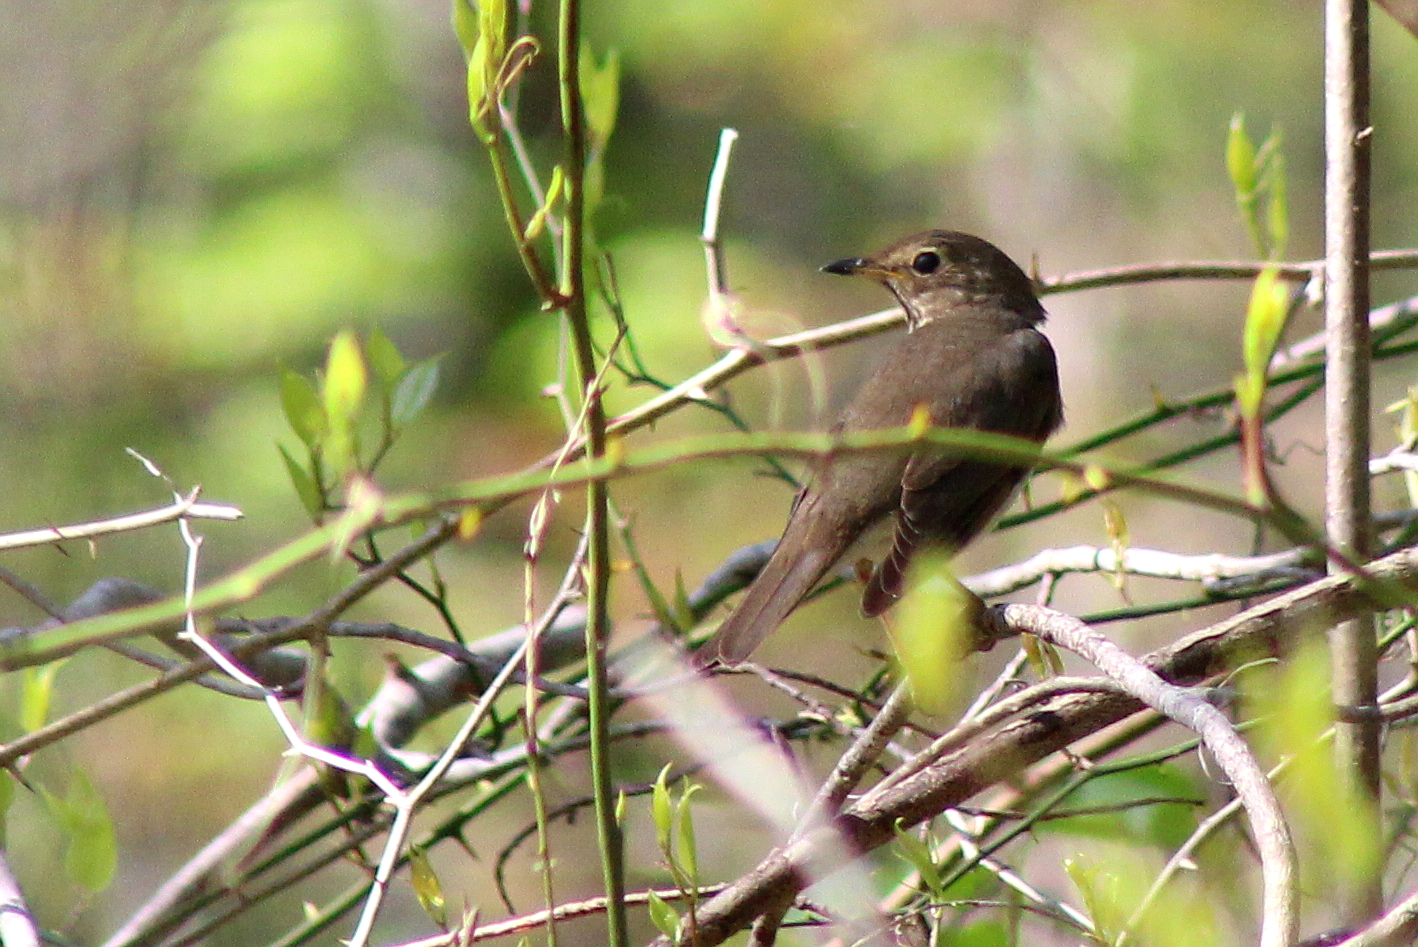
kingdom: Animalia
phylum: Chordata
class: Aves
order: Passeriformes
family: Turdidae
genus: Catharus
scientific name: Catharus ustulatus
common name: Swainson's thrush
